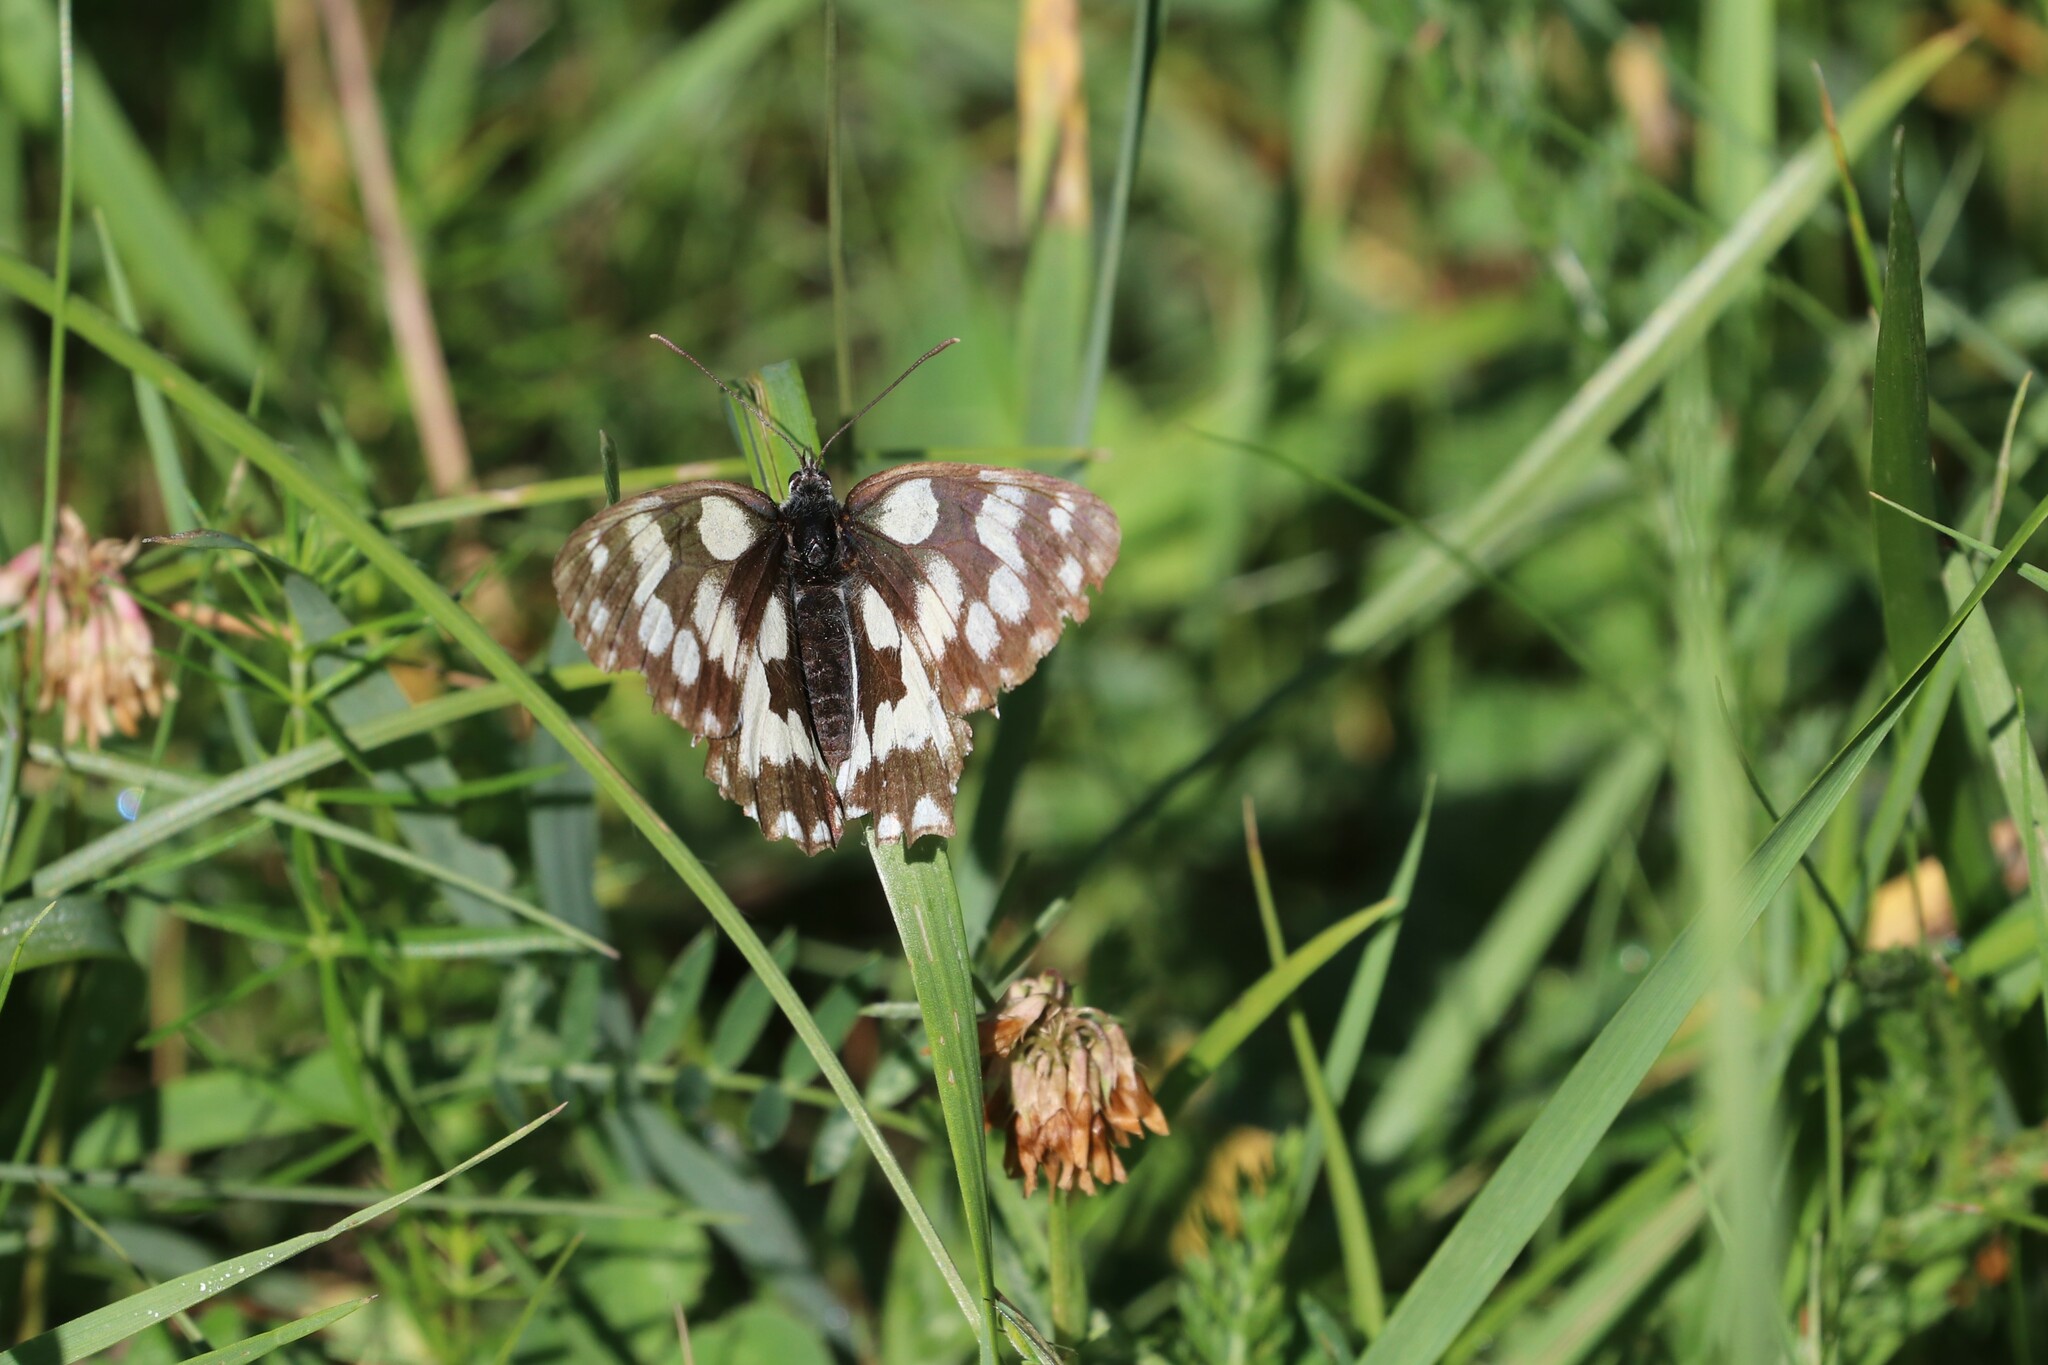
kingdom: Animalia
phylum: Arthropoda
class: Insecta
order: Lepidoptera
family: Nymphalidae
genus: Melanargia
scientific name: Melanargia galathea
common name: Marbled white
